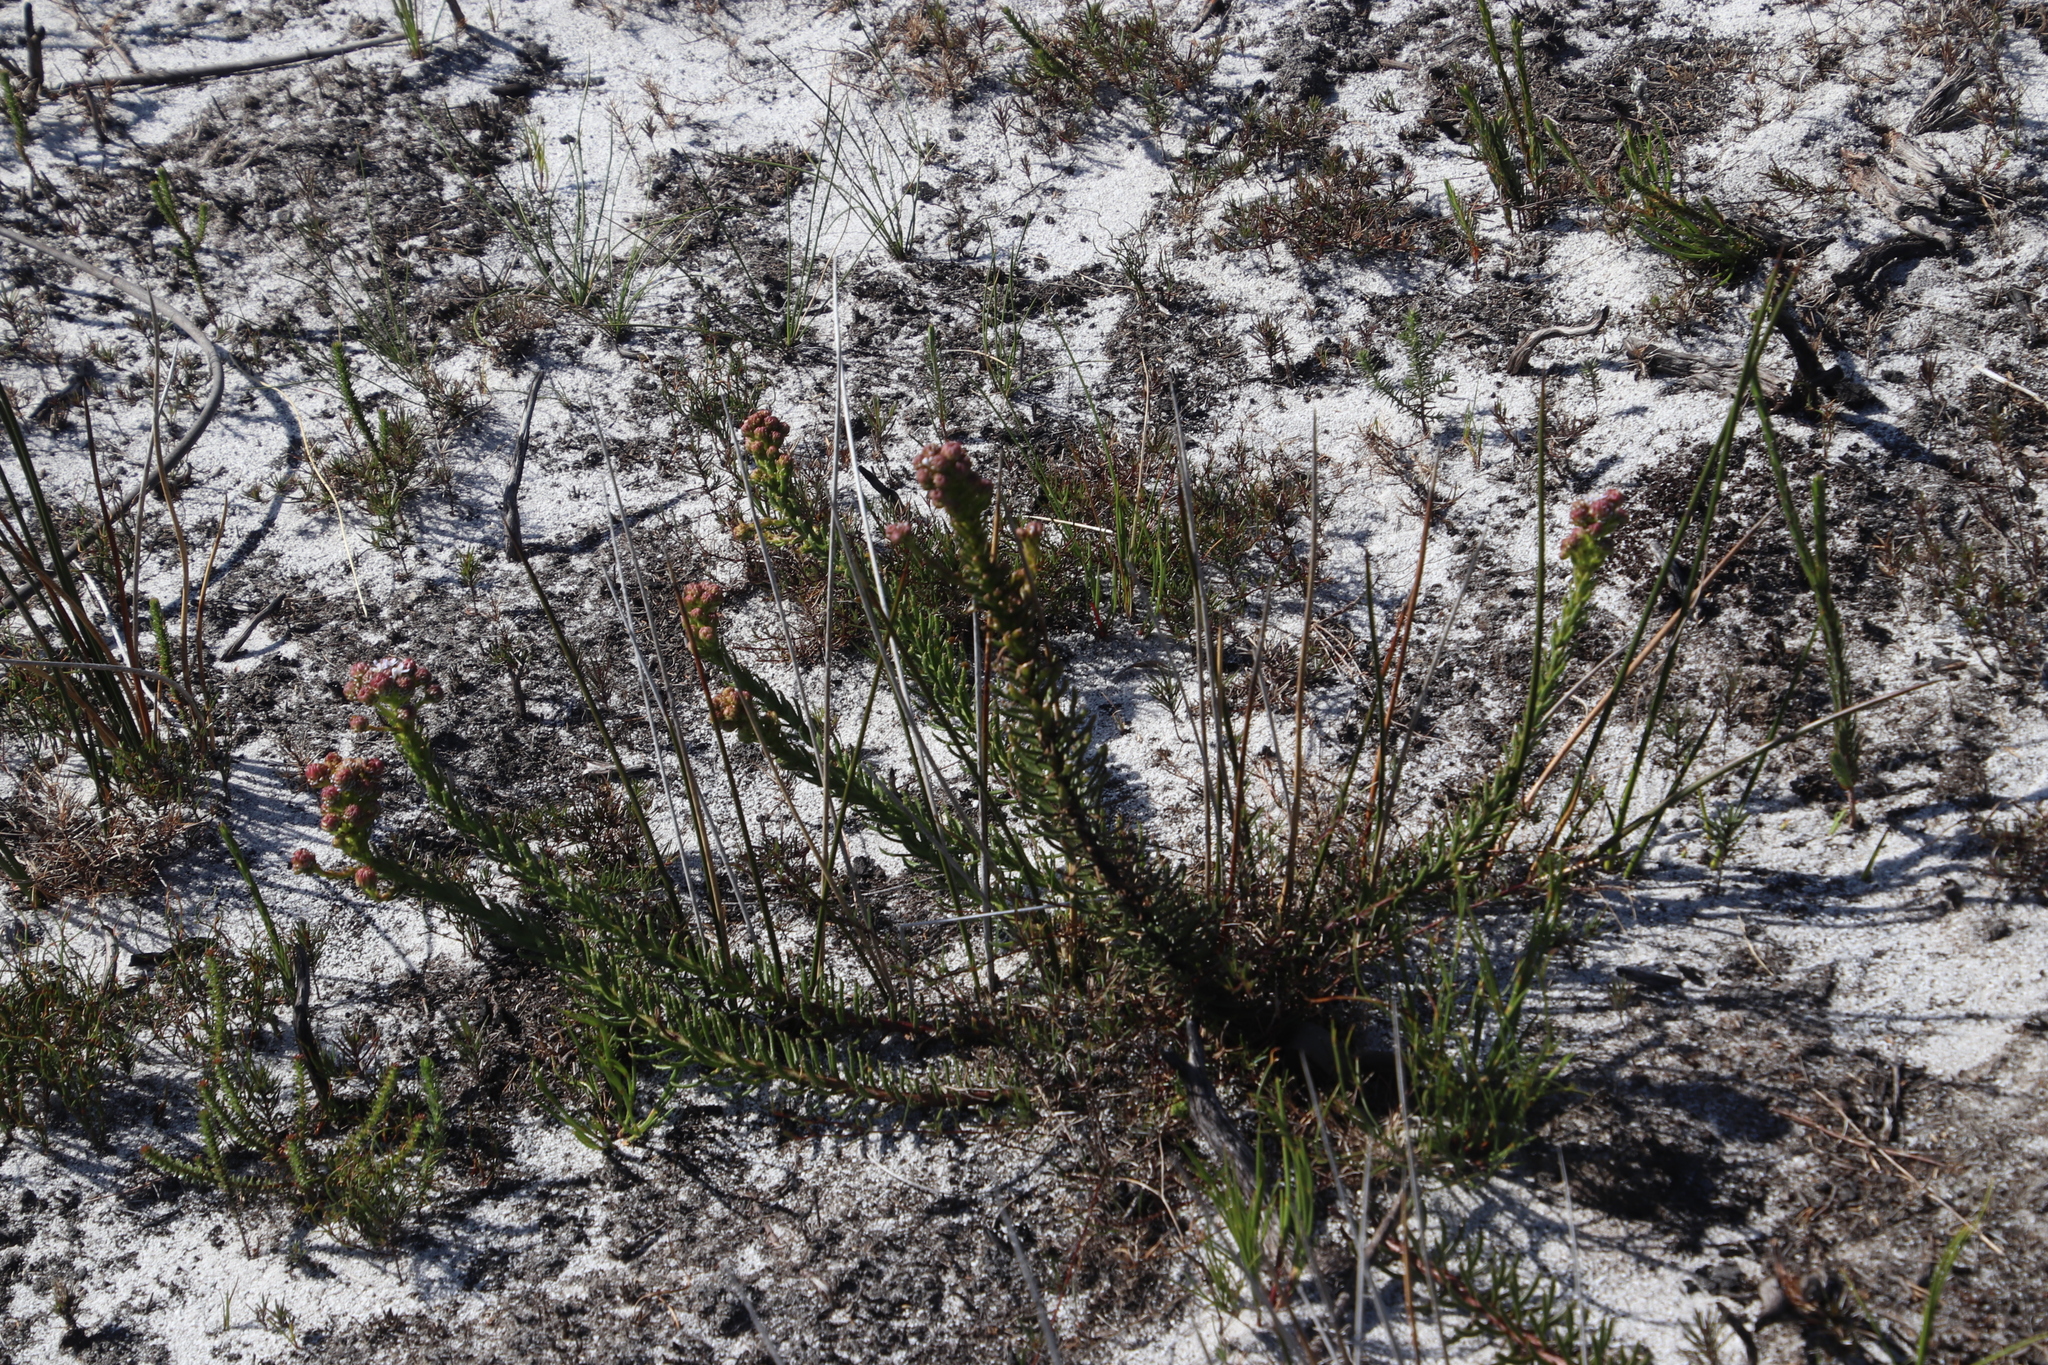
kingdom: Plantae
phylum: Tracheophyta
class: Magnoliopsida
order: Lamiales
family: Scrophulariaceae
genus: Pseudoselago
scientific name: Pseudoselago spuria
